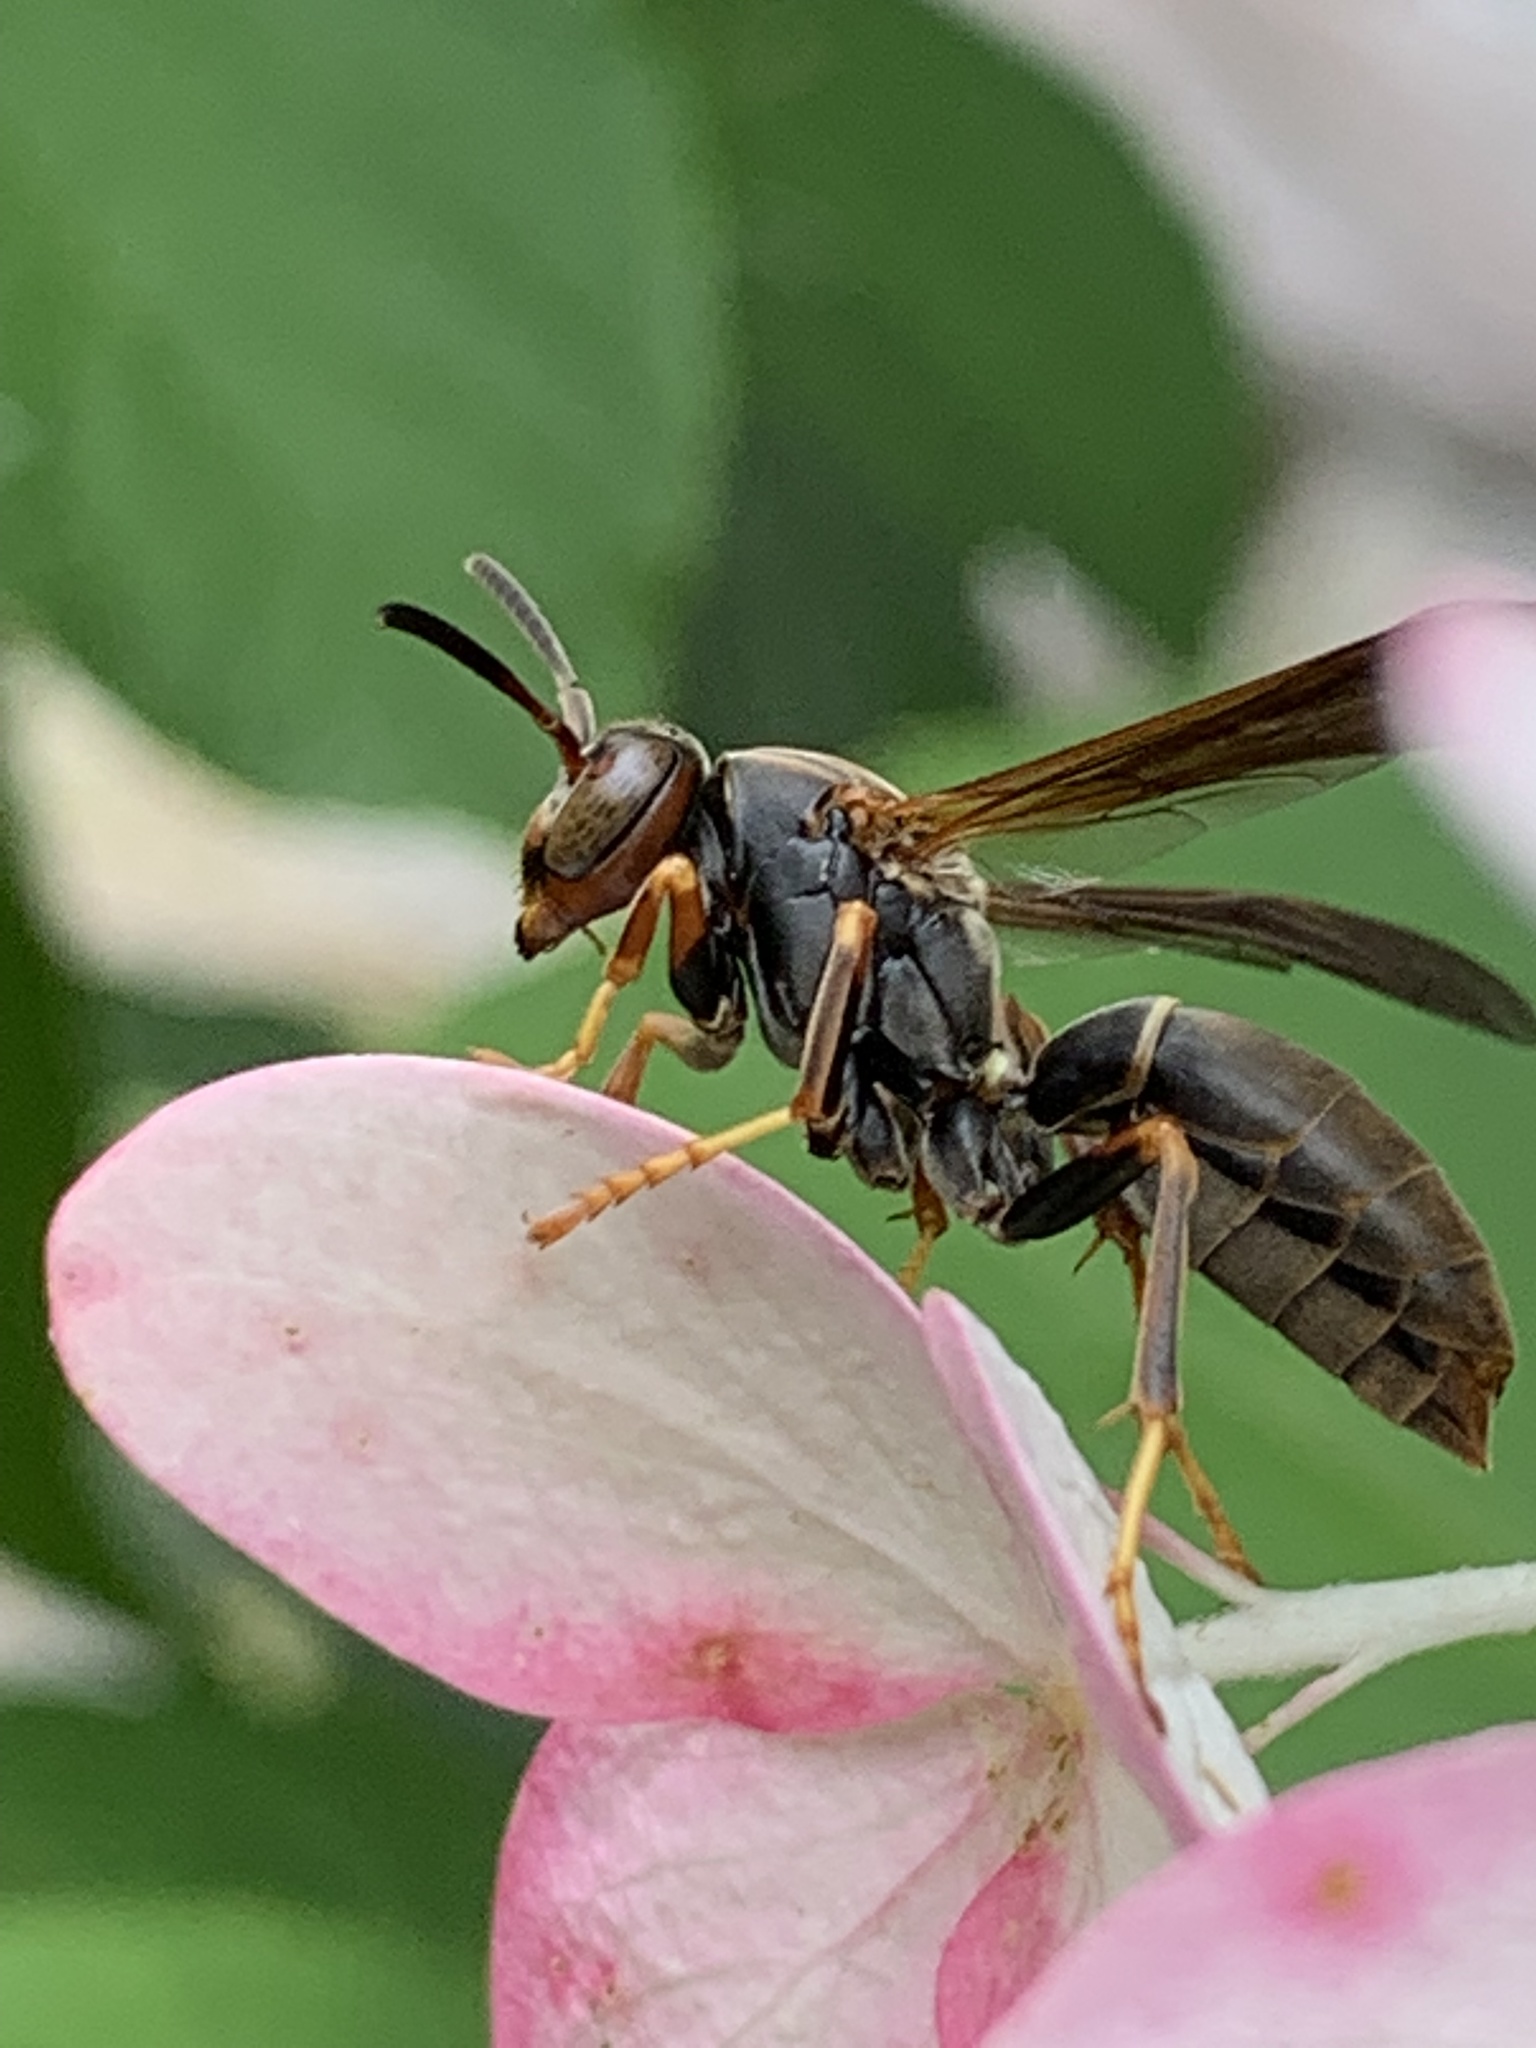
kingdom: Animalia
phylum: Arthropoda
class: Insecta
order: Hymenoptera
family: Eumenidae
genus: Polistes
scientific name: Polistes parametricus
